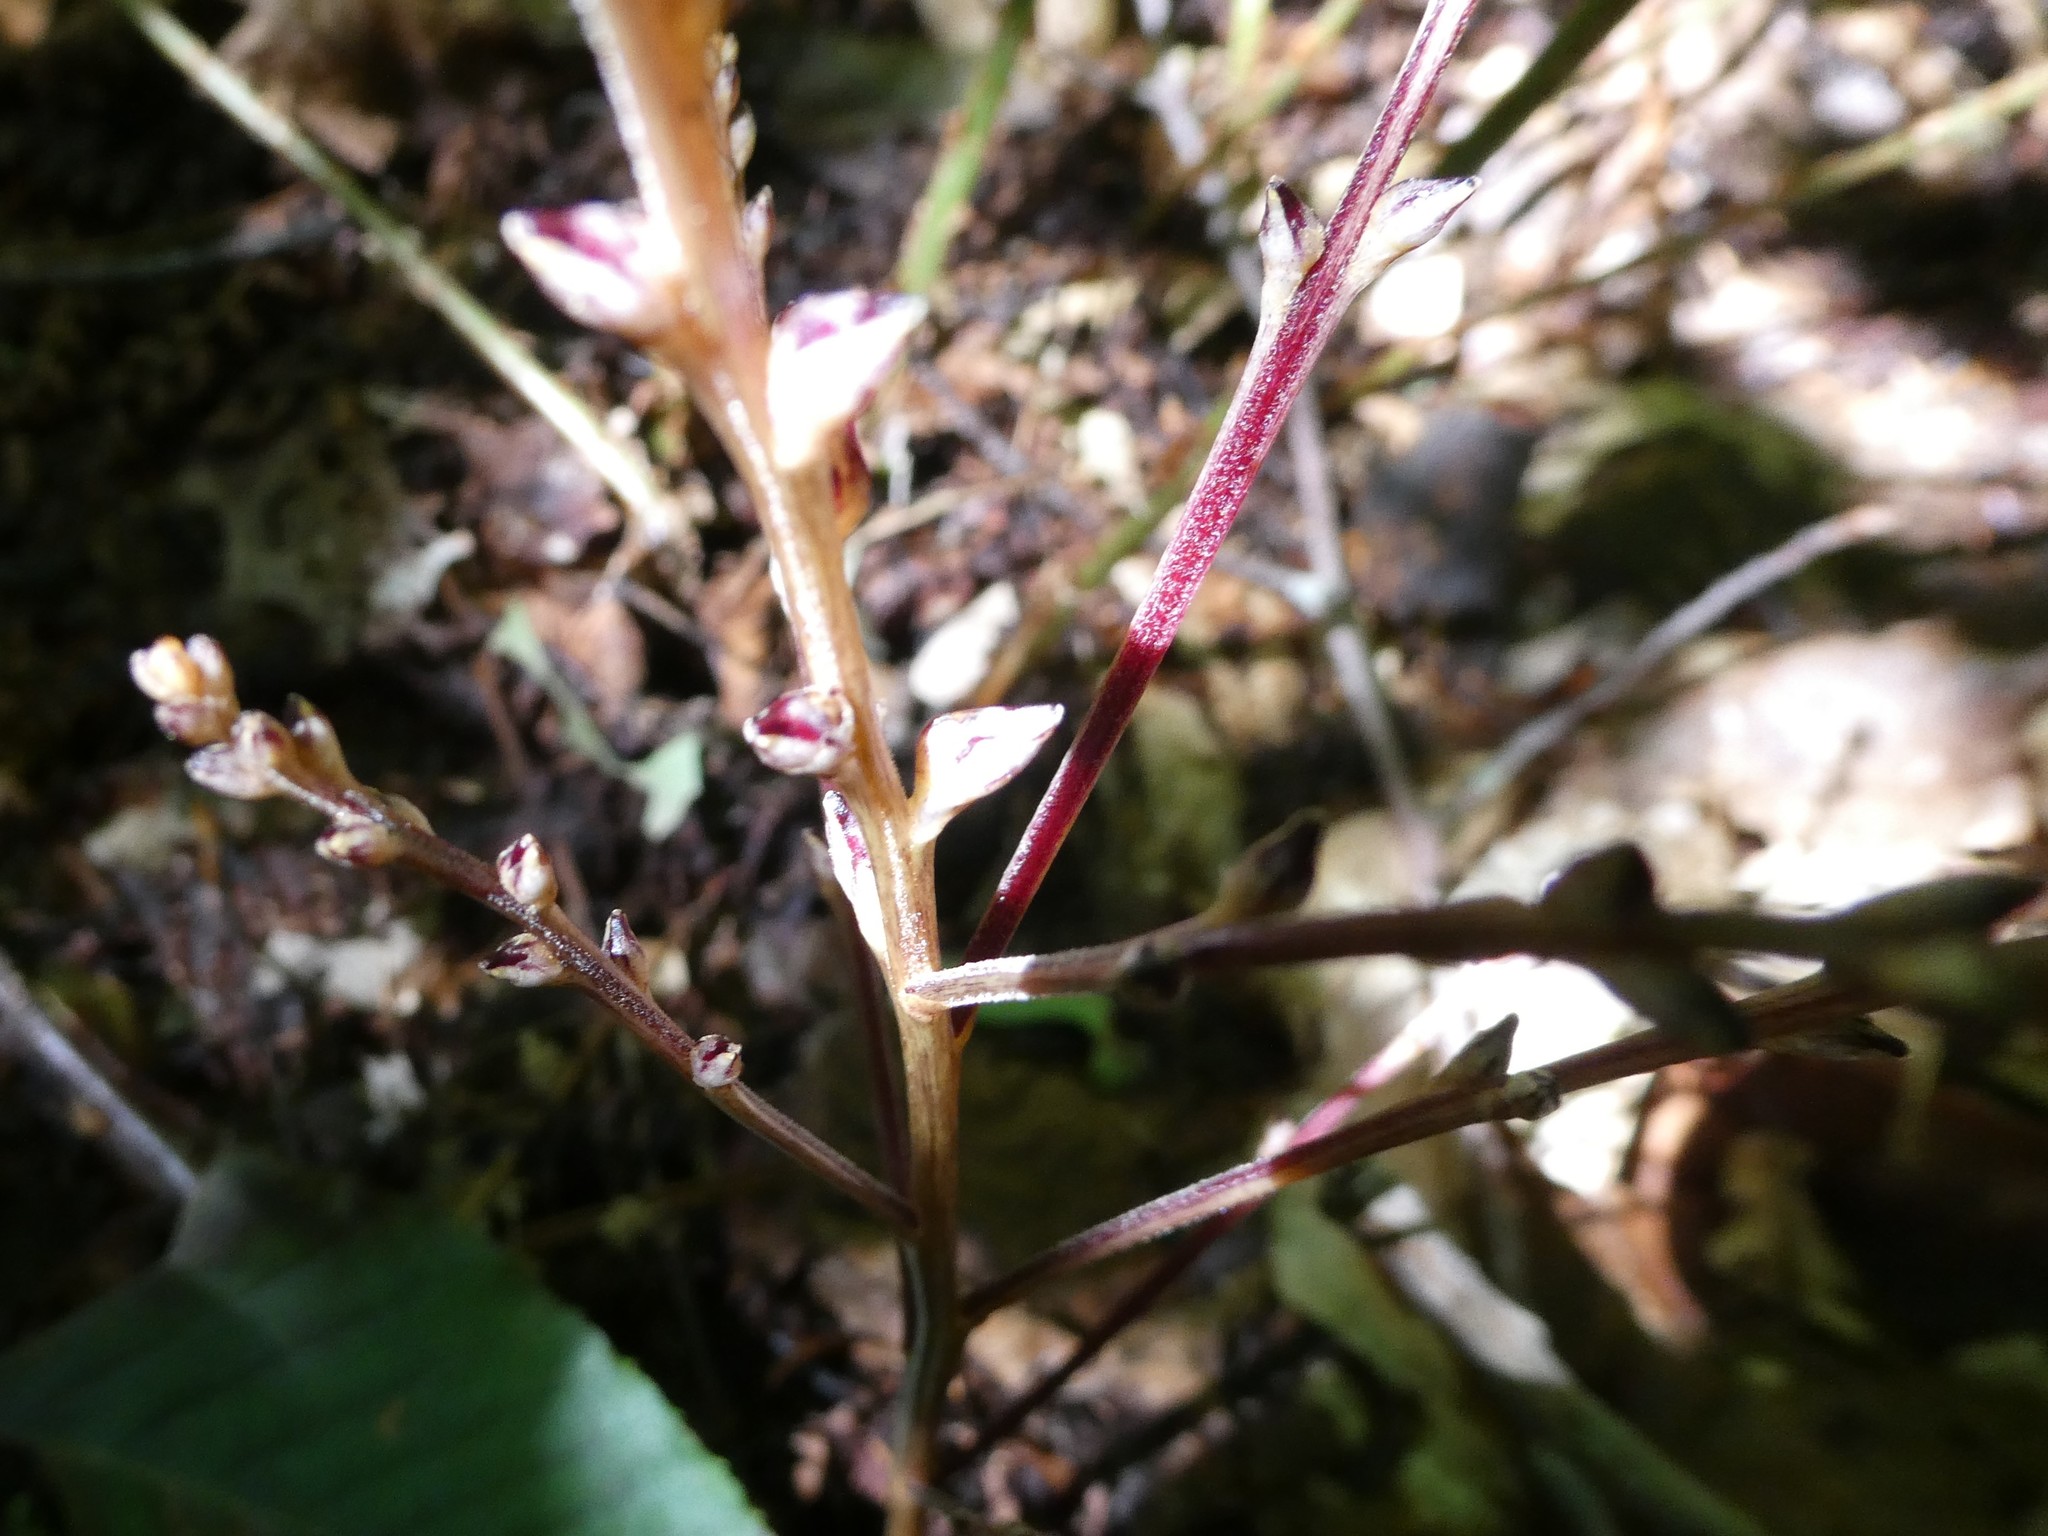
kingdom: Plantae
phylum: Tracheophyta
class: Magnoliopsida
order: Lamiales
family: Orobanchaceae
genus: Epifagus
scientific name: Epifagus virginiana
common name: Beechdrops
